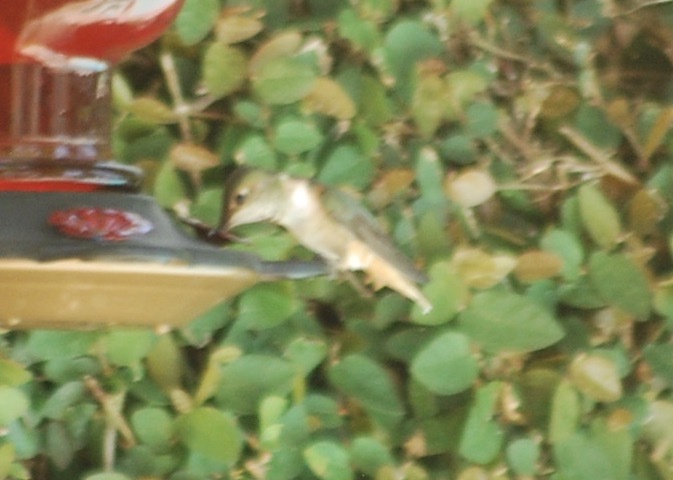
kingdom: Animalia
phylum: Chordata
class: Aves
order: Apodiformes
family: Trochilidae
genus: Selasphorus
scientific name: Selasphorus
